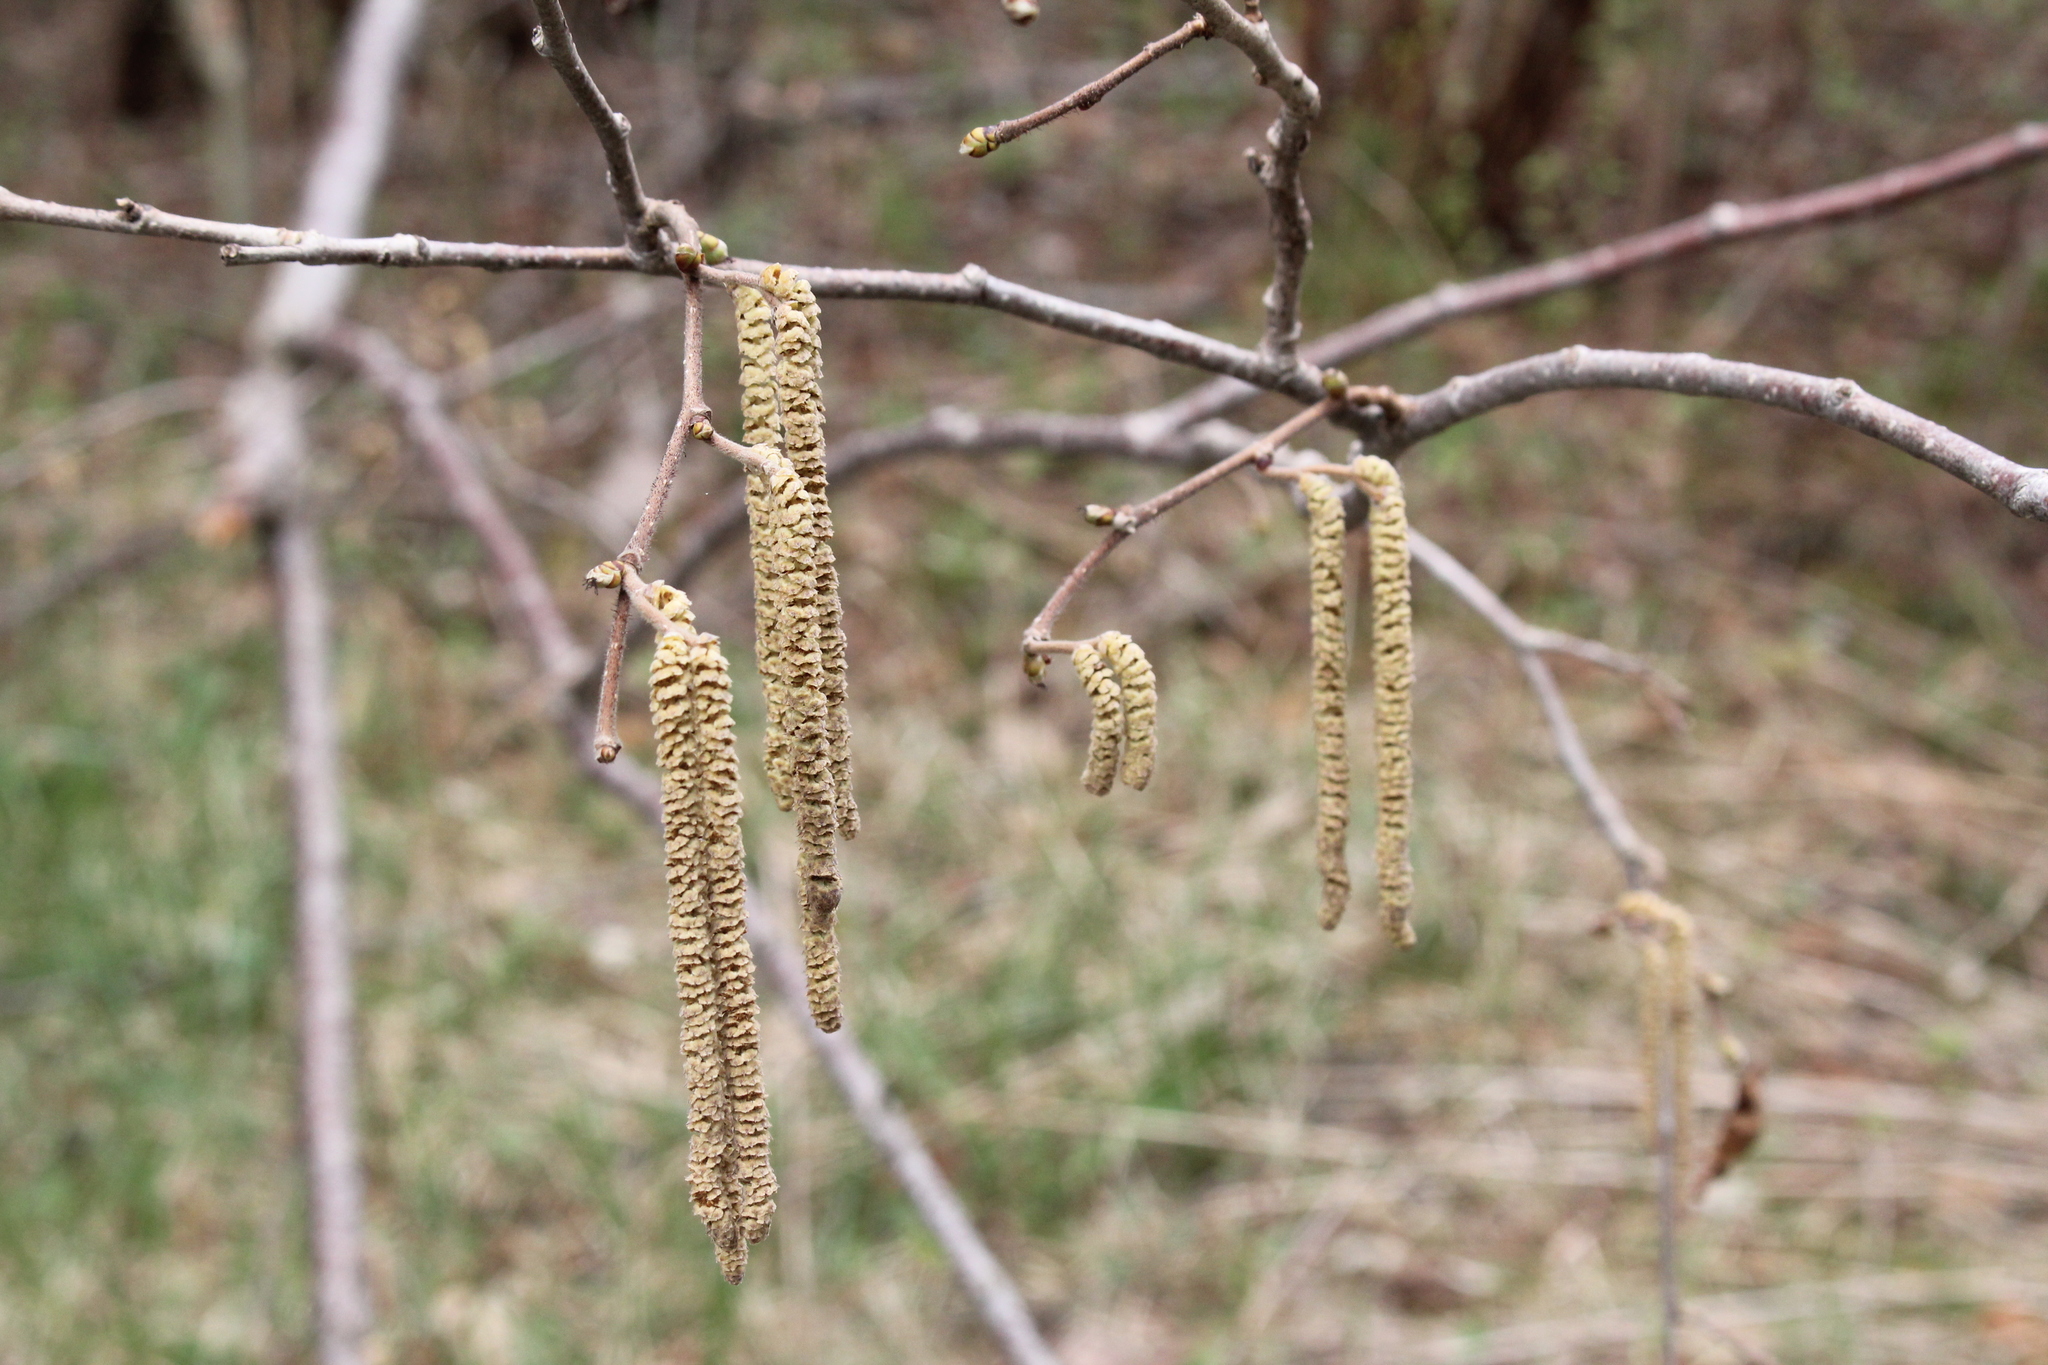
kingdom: Plantae
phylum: Tracheophyta
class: Magnoliopsida
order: Fagales
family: Betulaceae
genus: Corylus
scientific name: Corylus americana
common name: American hazel
